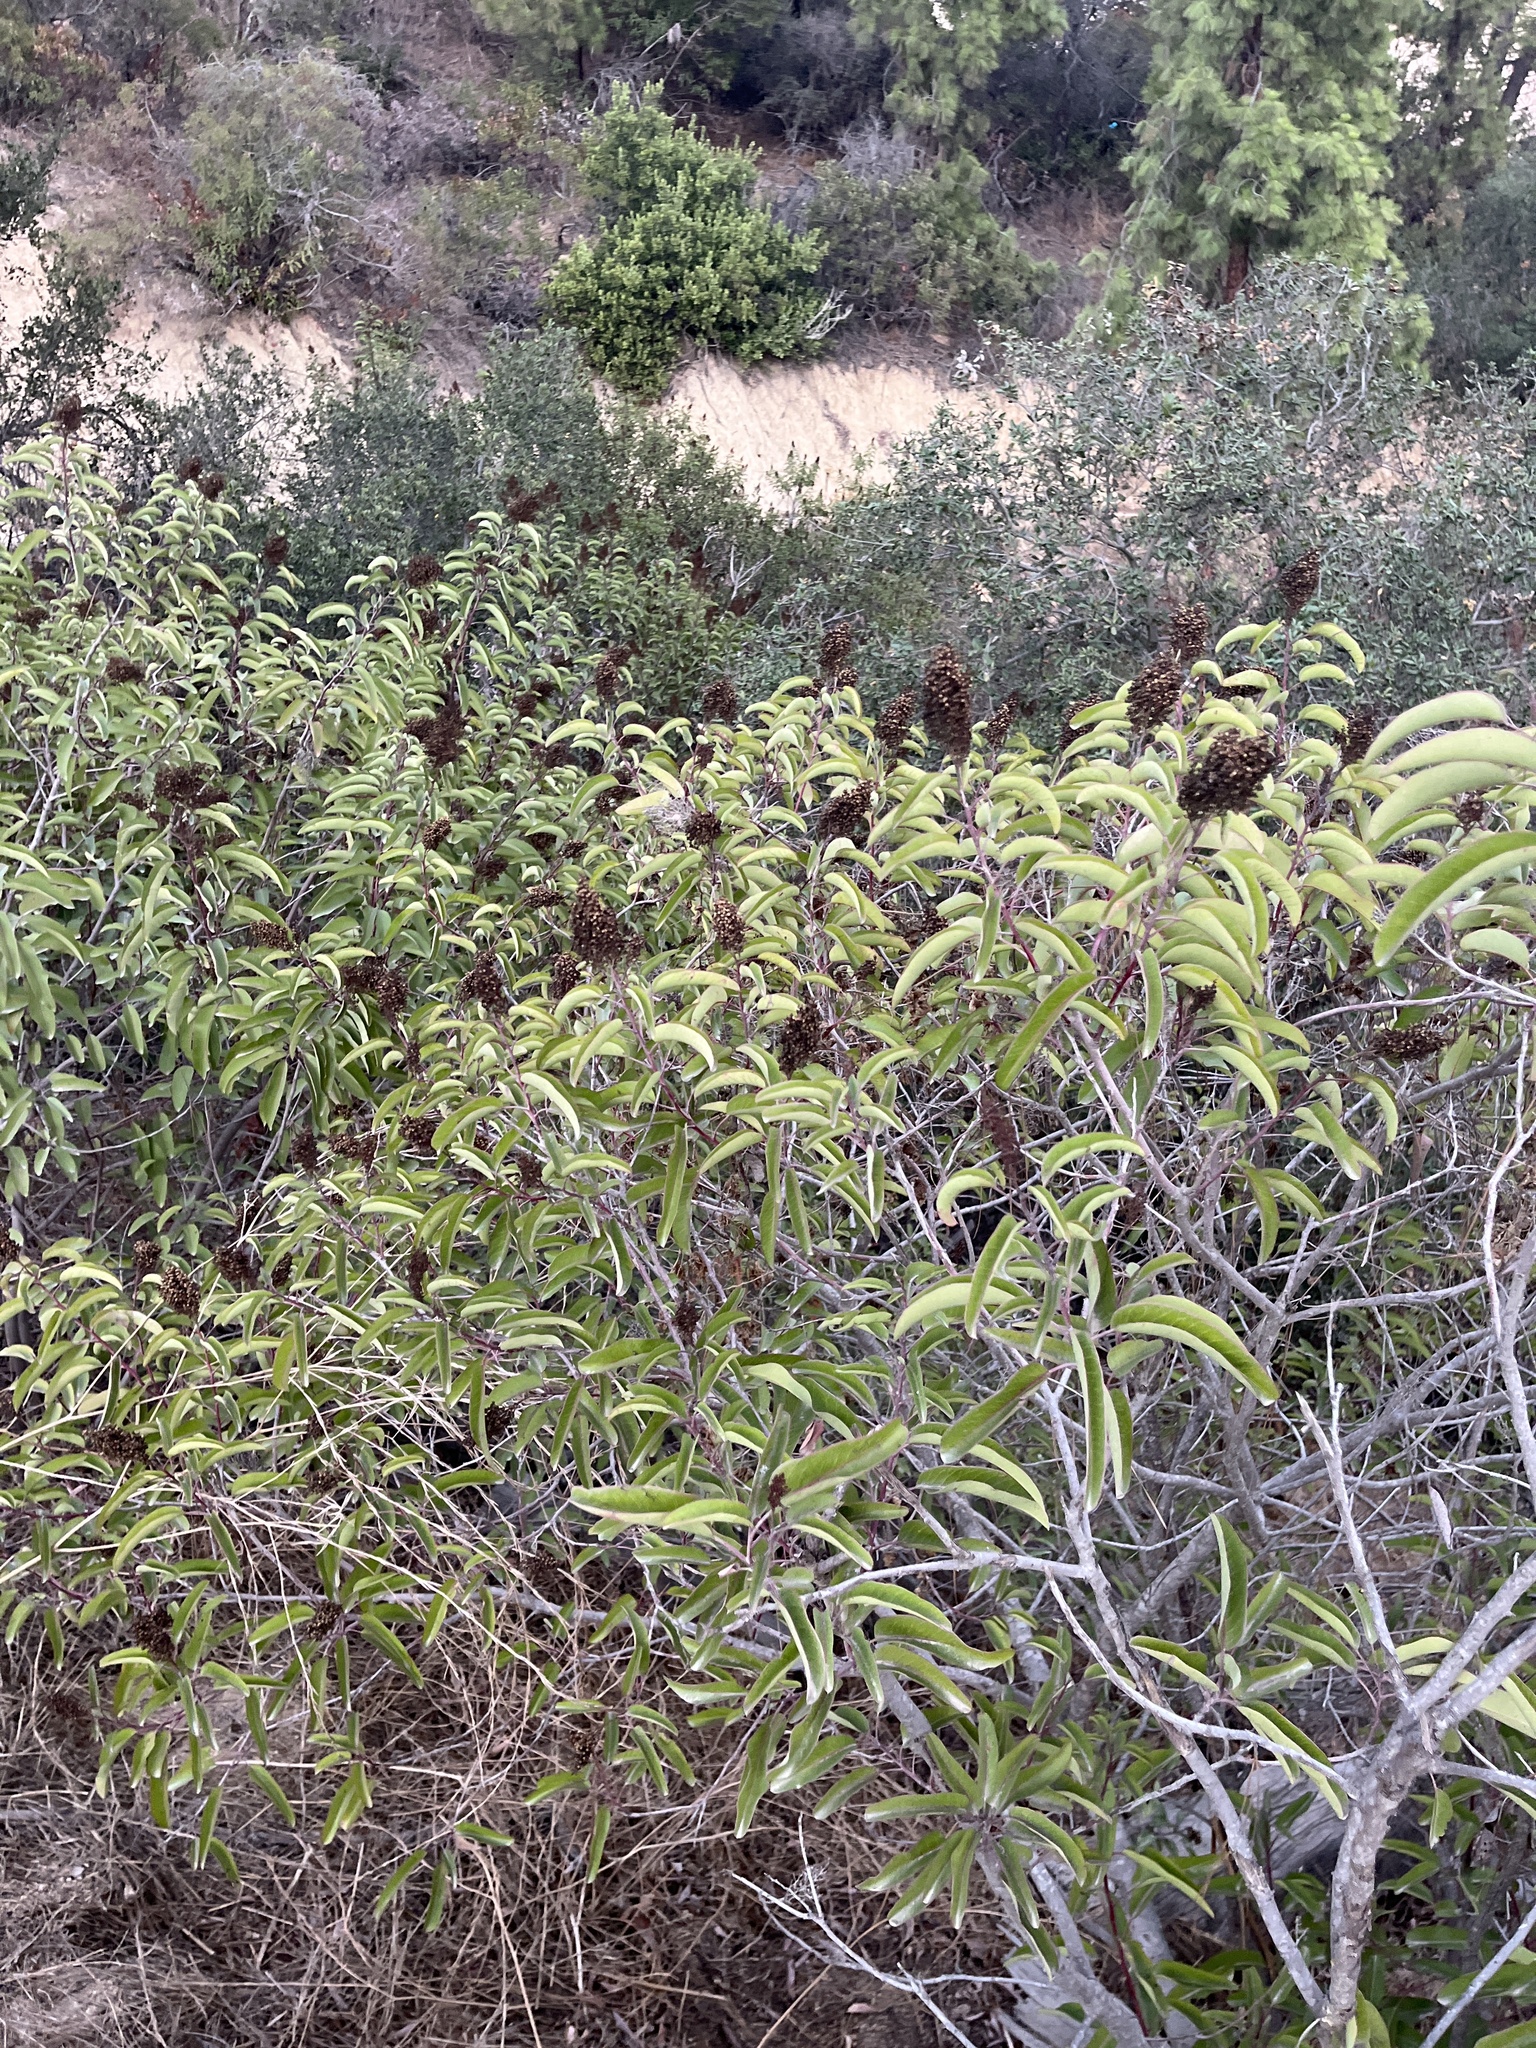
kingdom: Plantae
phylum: Tracheophyta
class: Magnoliopsida
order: Sapindales
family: Anacardiaceae
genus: Malosma
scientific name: Malosma laurina
